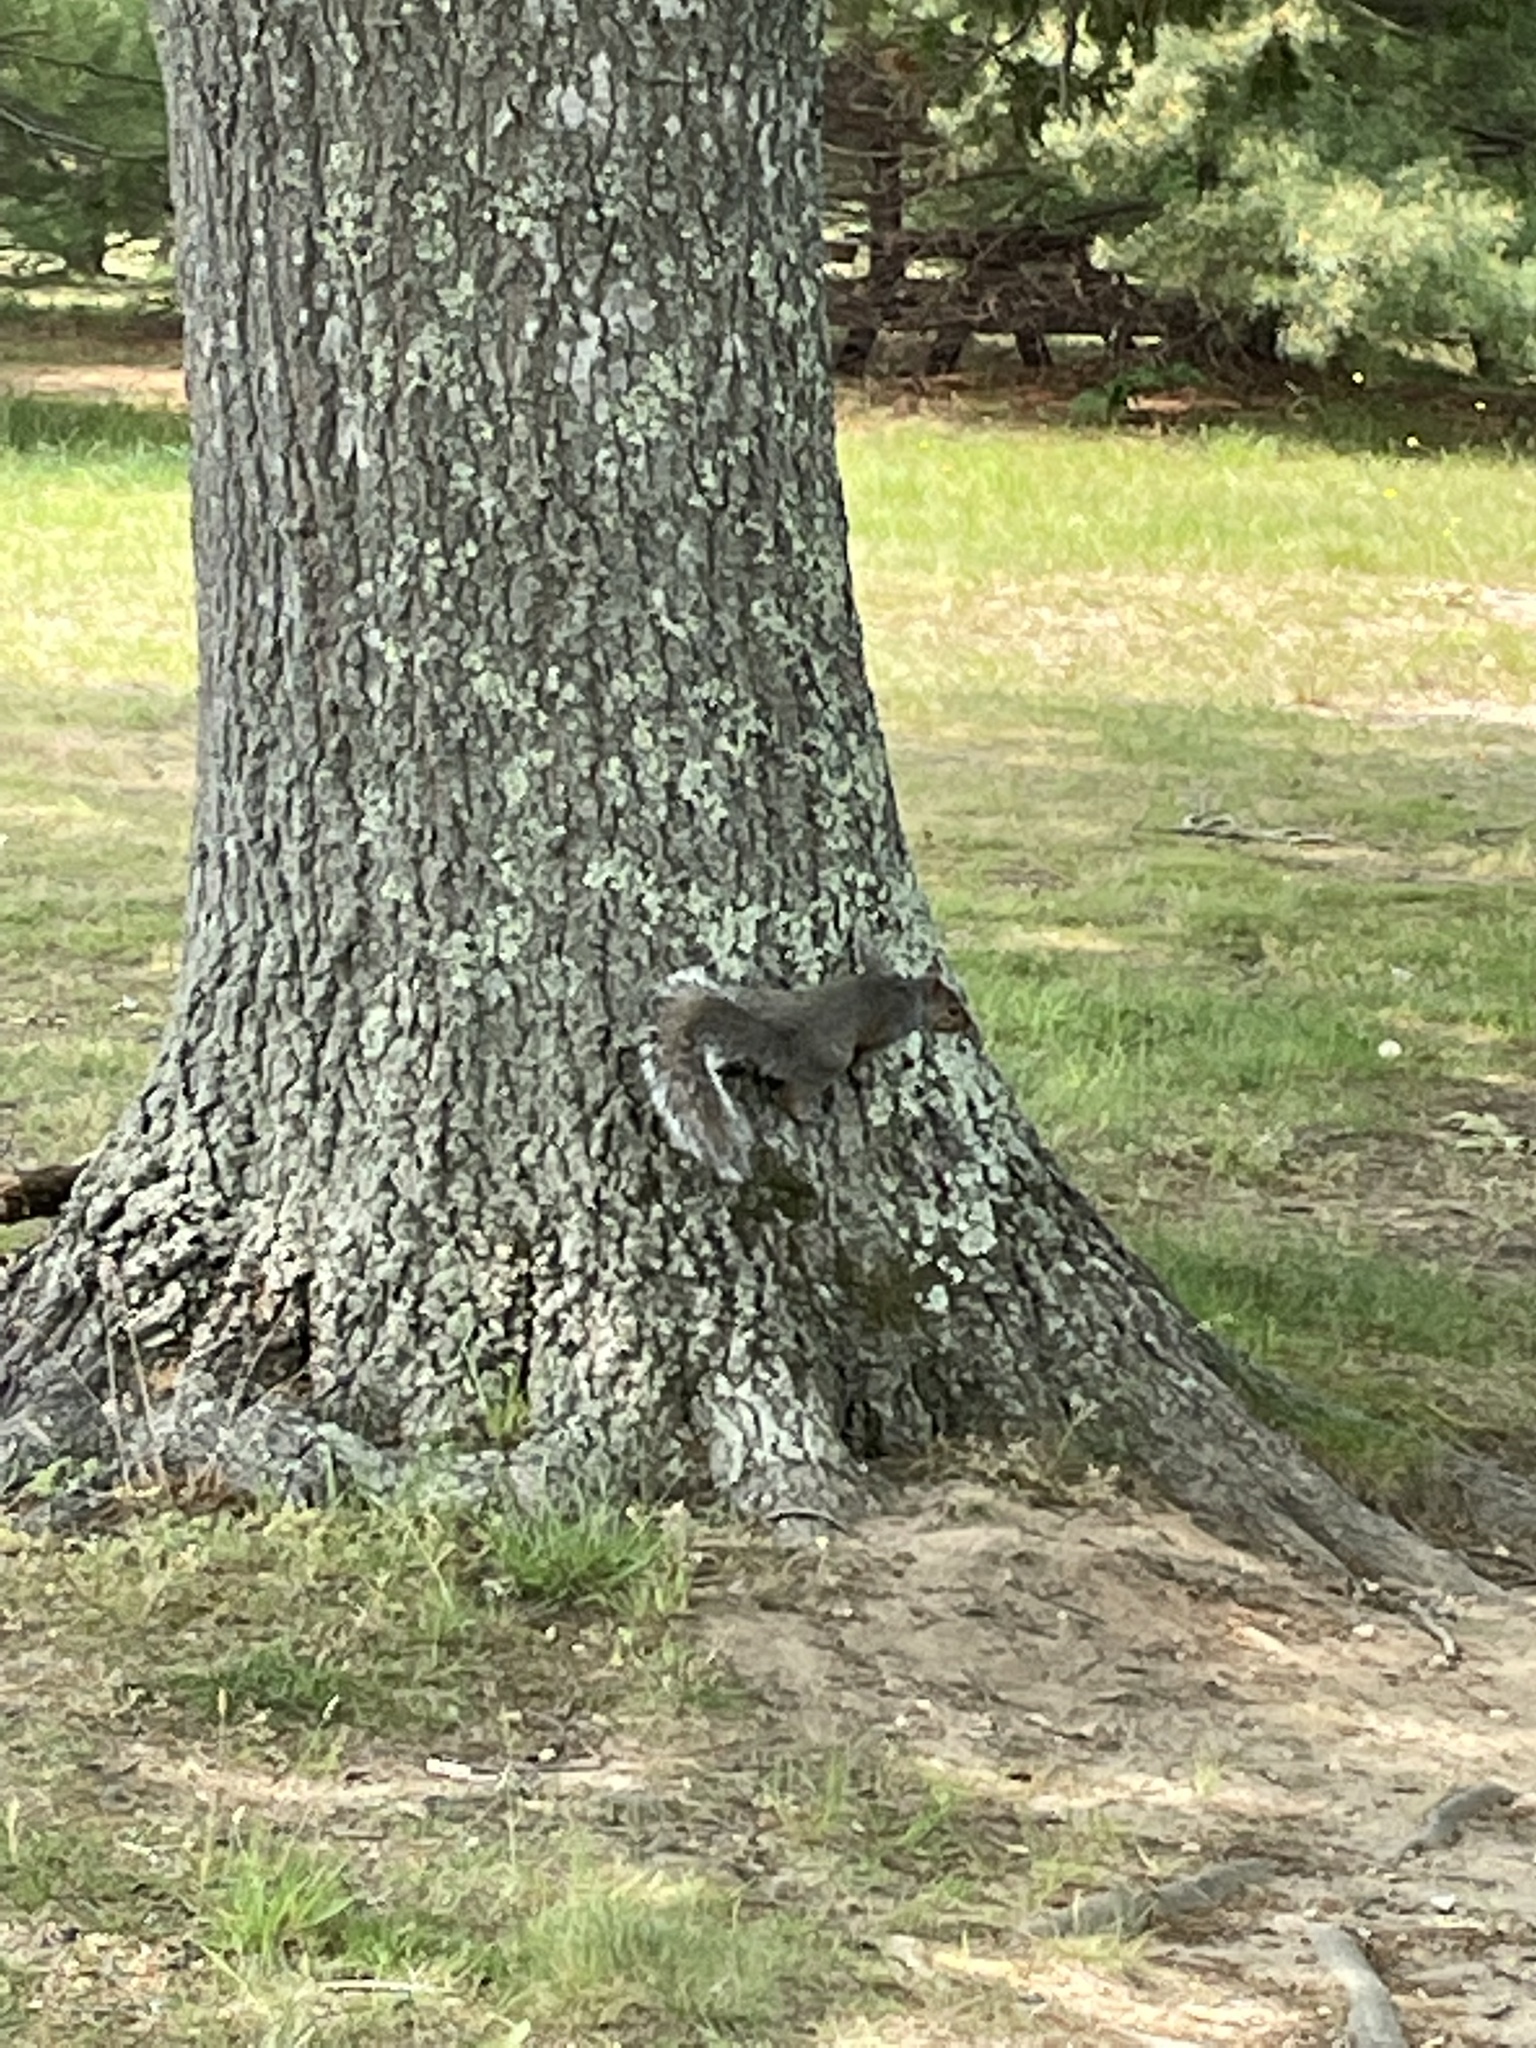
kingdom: Animalia
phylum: Chordata
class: Mammalia
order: Rodentia
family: Sciuridae
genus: Sciurus
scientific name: Sciurus carolinensis
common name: Eastern gray squirrel
